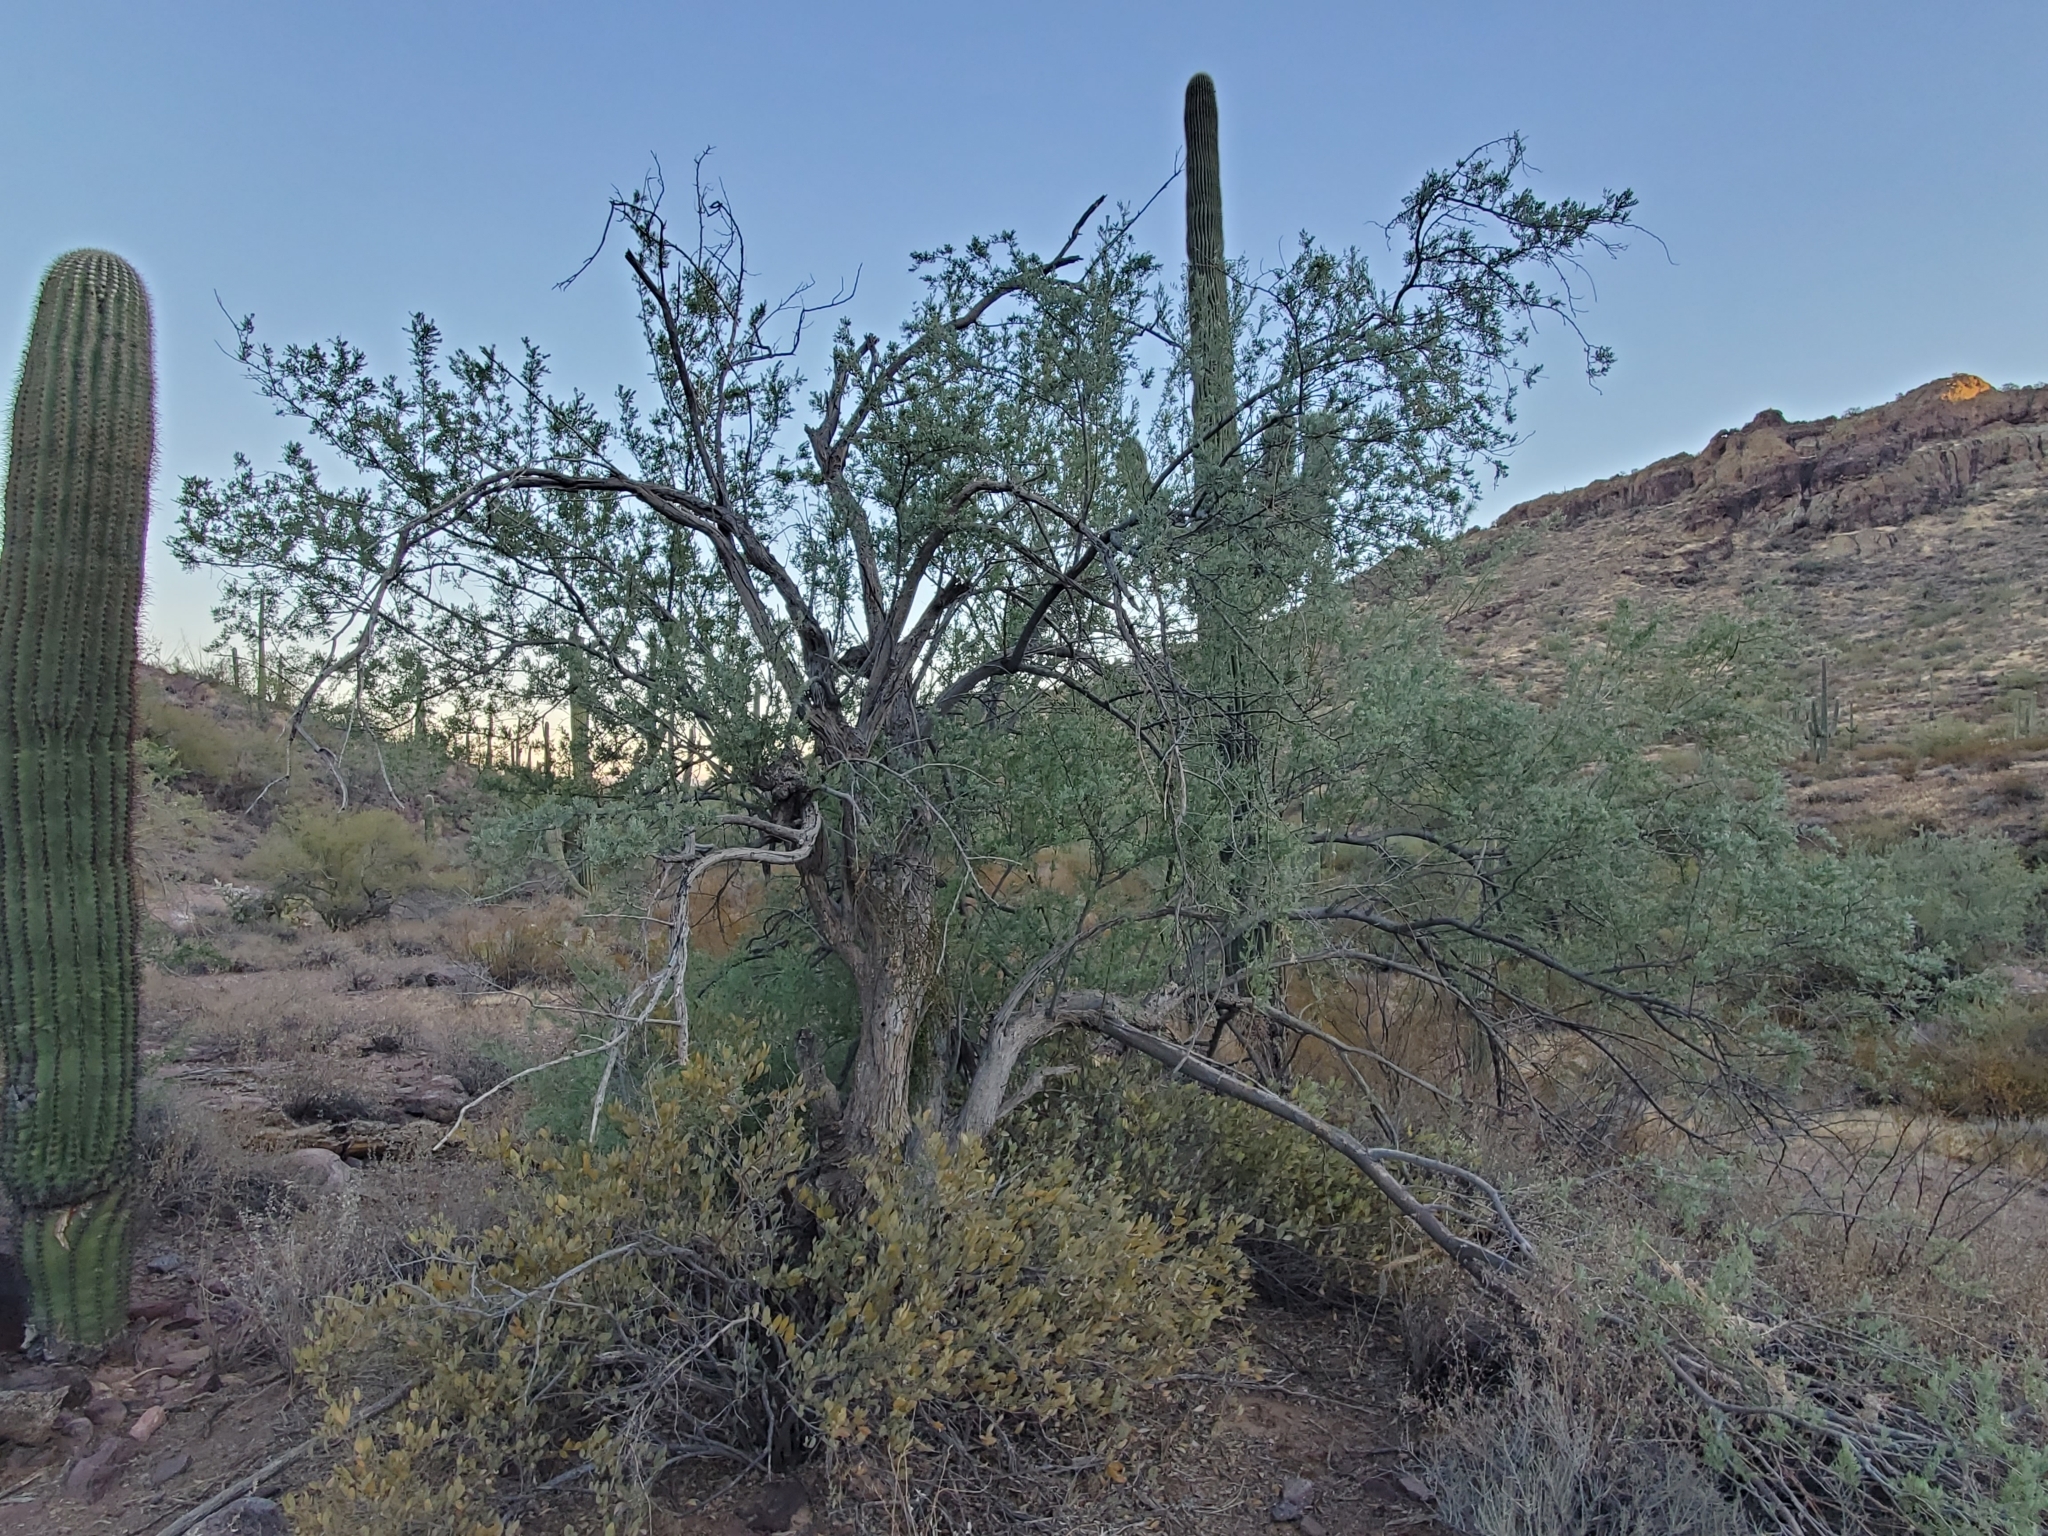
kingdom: Plantae
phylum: Tracheophyta
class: Magnoliopsida
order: Fabales
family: Fabaceae
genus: Olneya
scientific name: Olneya tesota
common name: Desert ironwood
